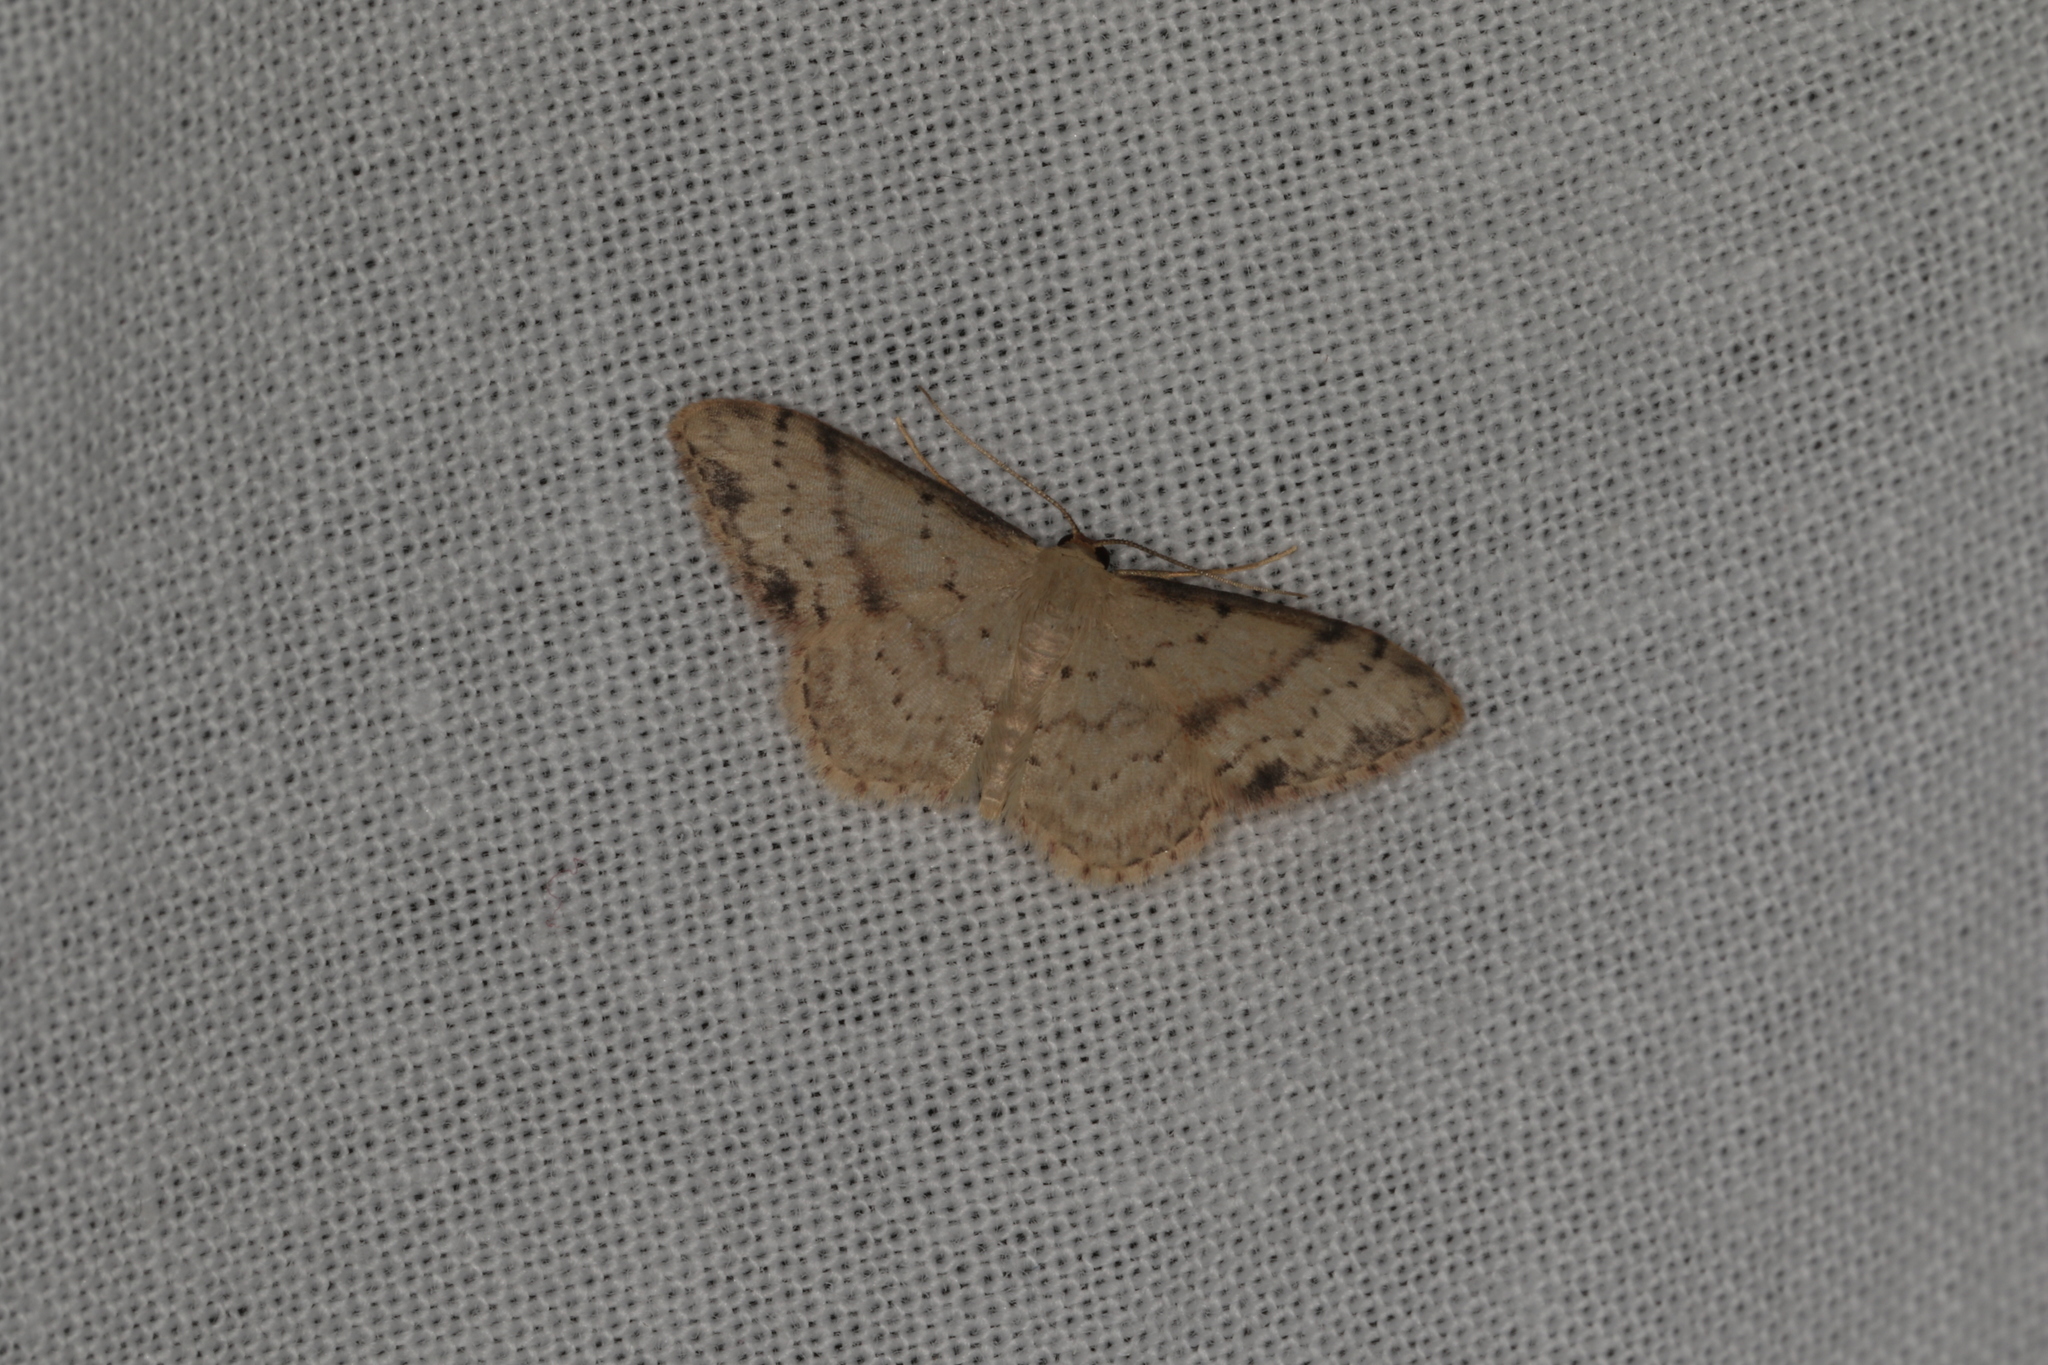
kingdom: Animalia
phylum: Arthropoda
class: Insecta
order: Lepidoptera
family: Geometridae
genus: Idaea
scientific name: Idaea halmaea
